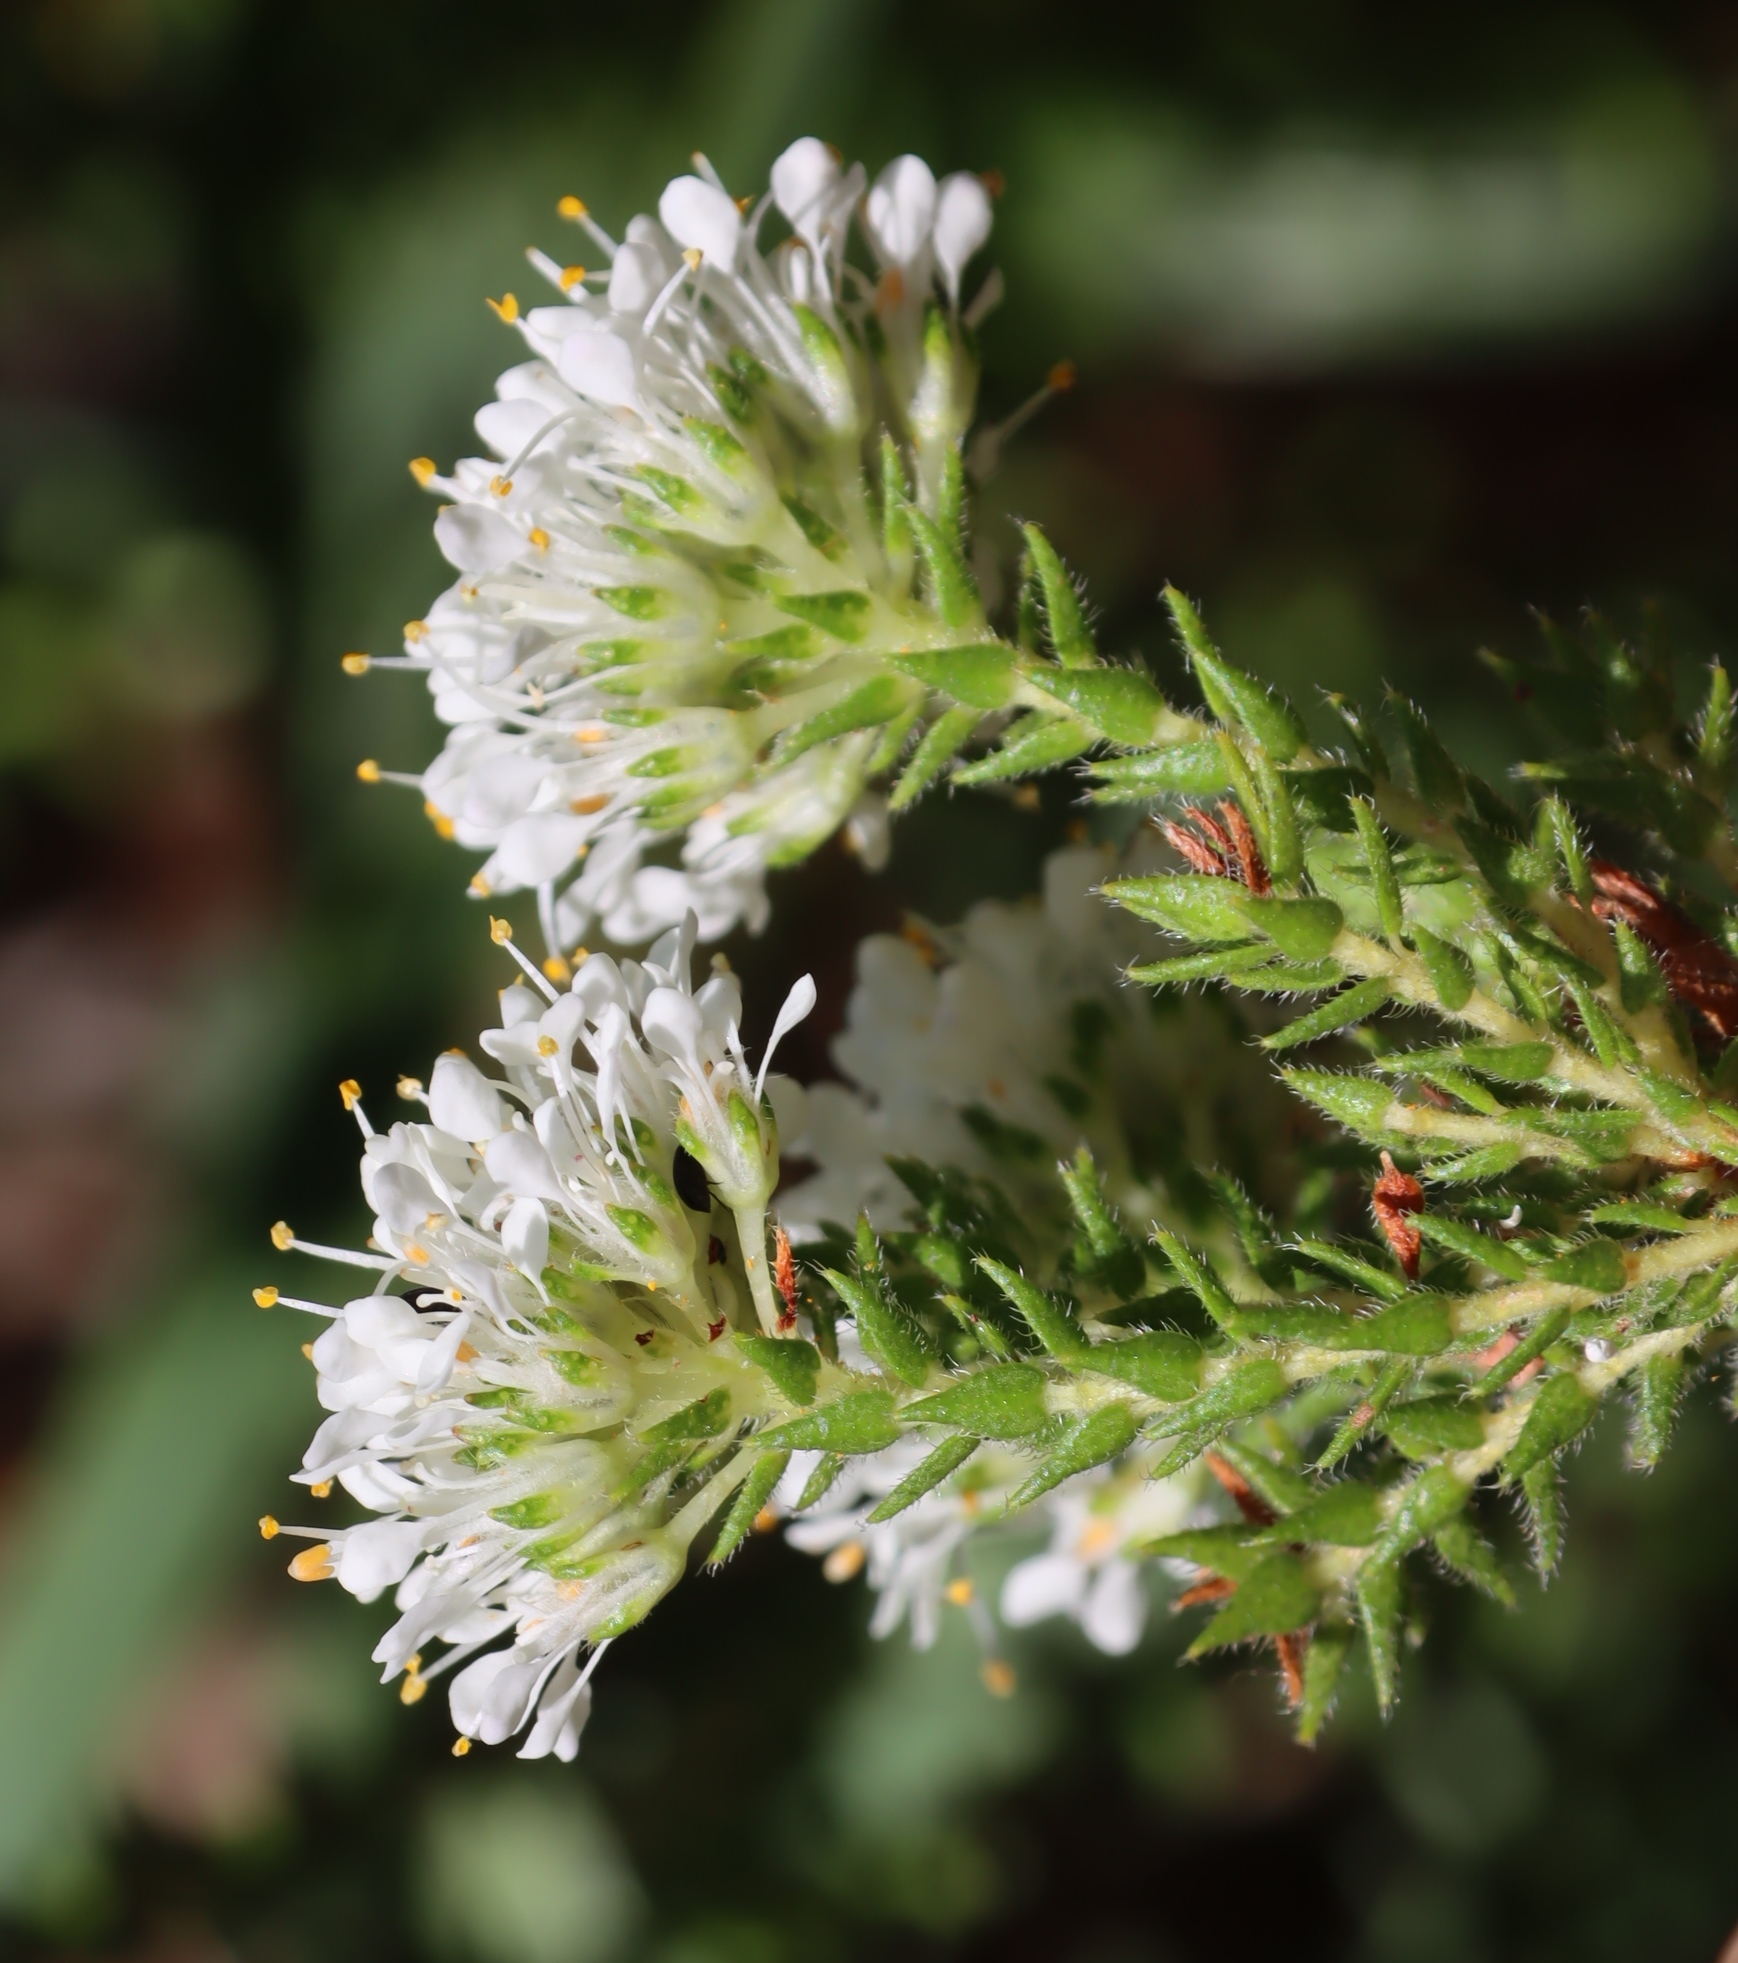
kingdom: Plantae
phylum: Tracheophyta
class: Magnoliopsida
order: Sapindales
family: Rutaceae
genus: Agathosma
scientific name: Agathosma imbricata
